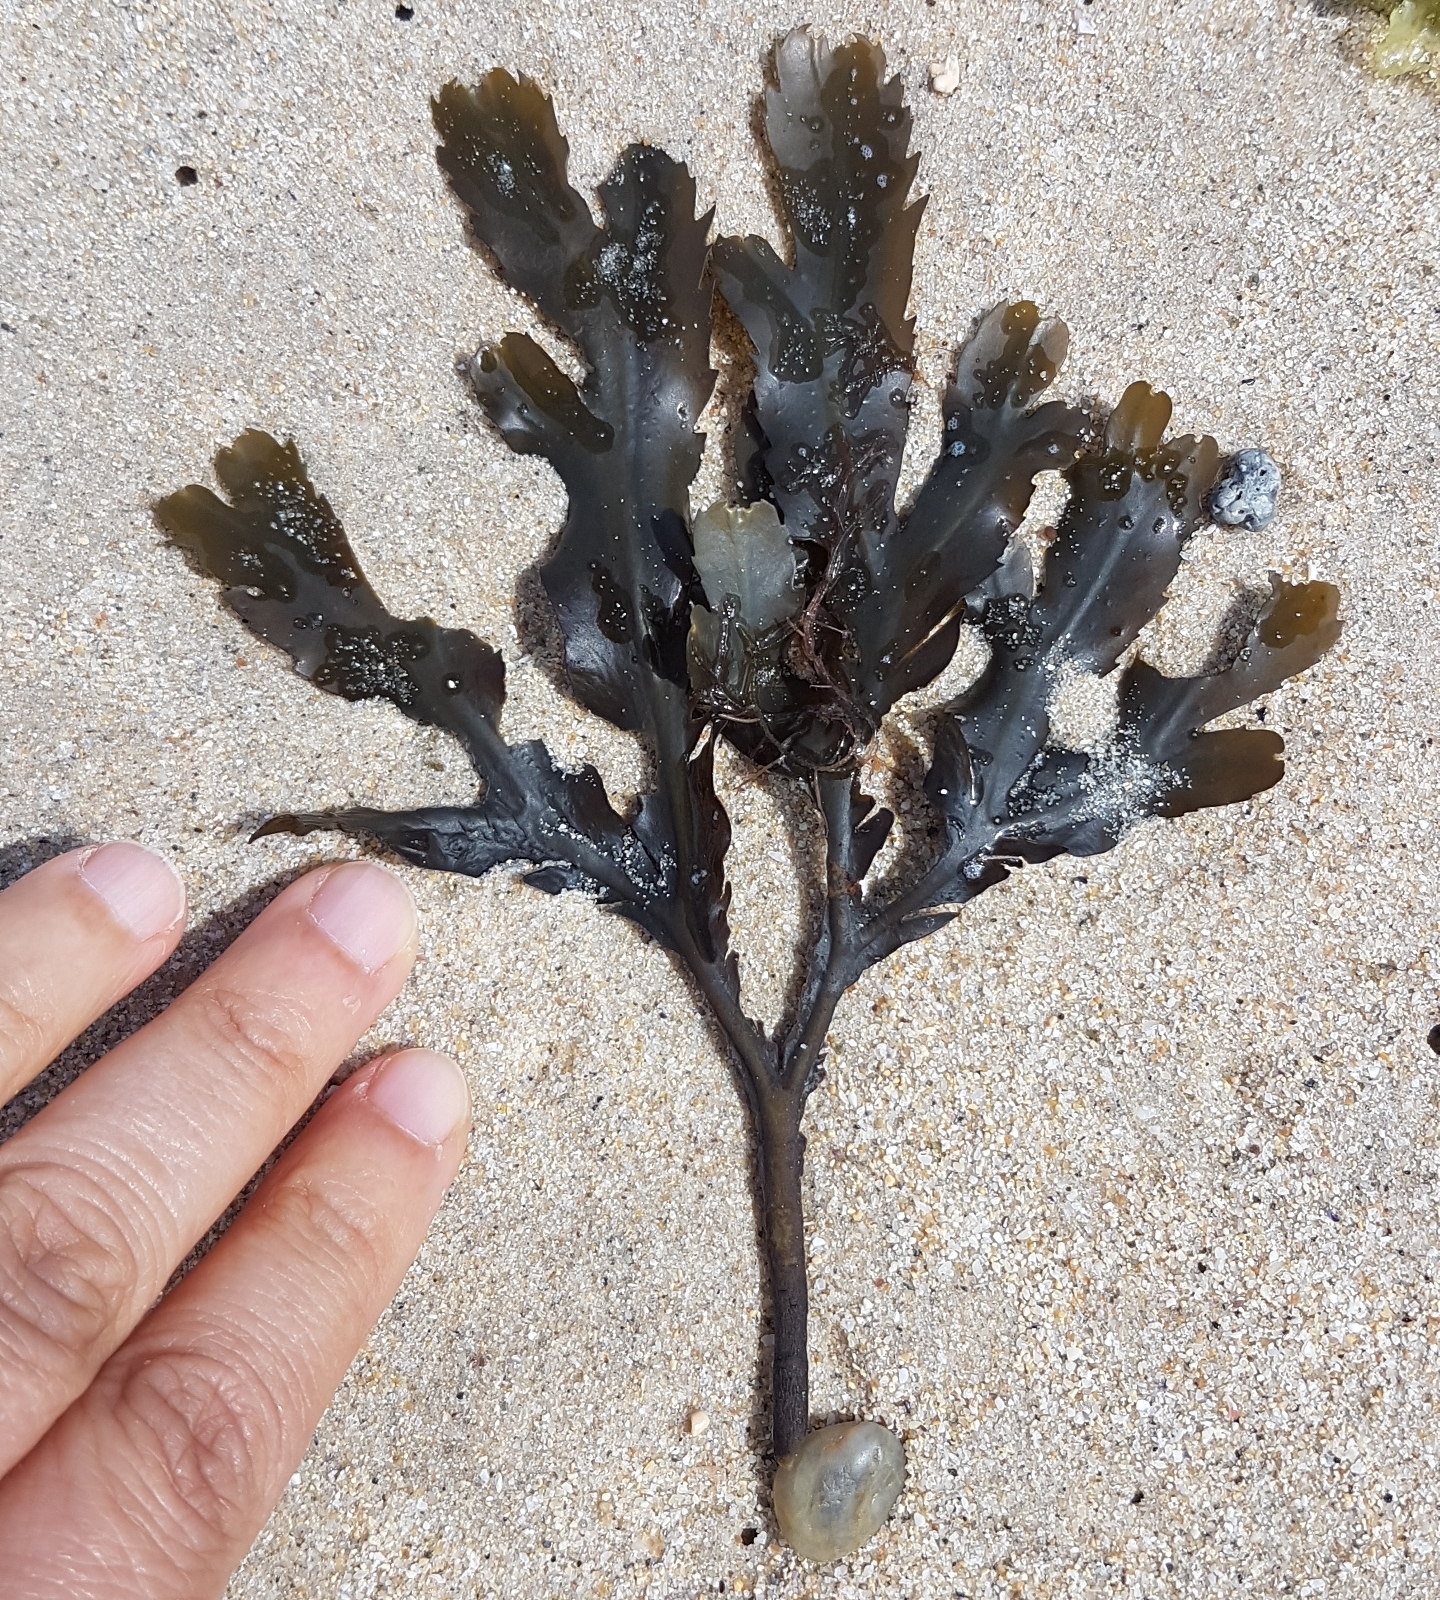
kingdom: Chromista
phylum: Ochrophyta
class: Phaeophyceae
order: Fucales
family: Fucaceae
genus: Fucus
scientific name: Fucus serratus
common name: Toothed wrack
